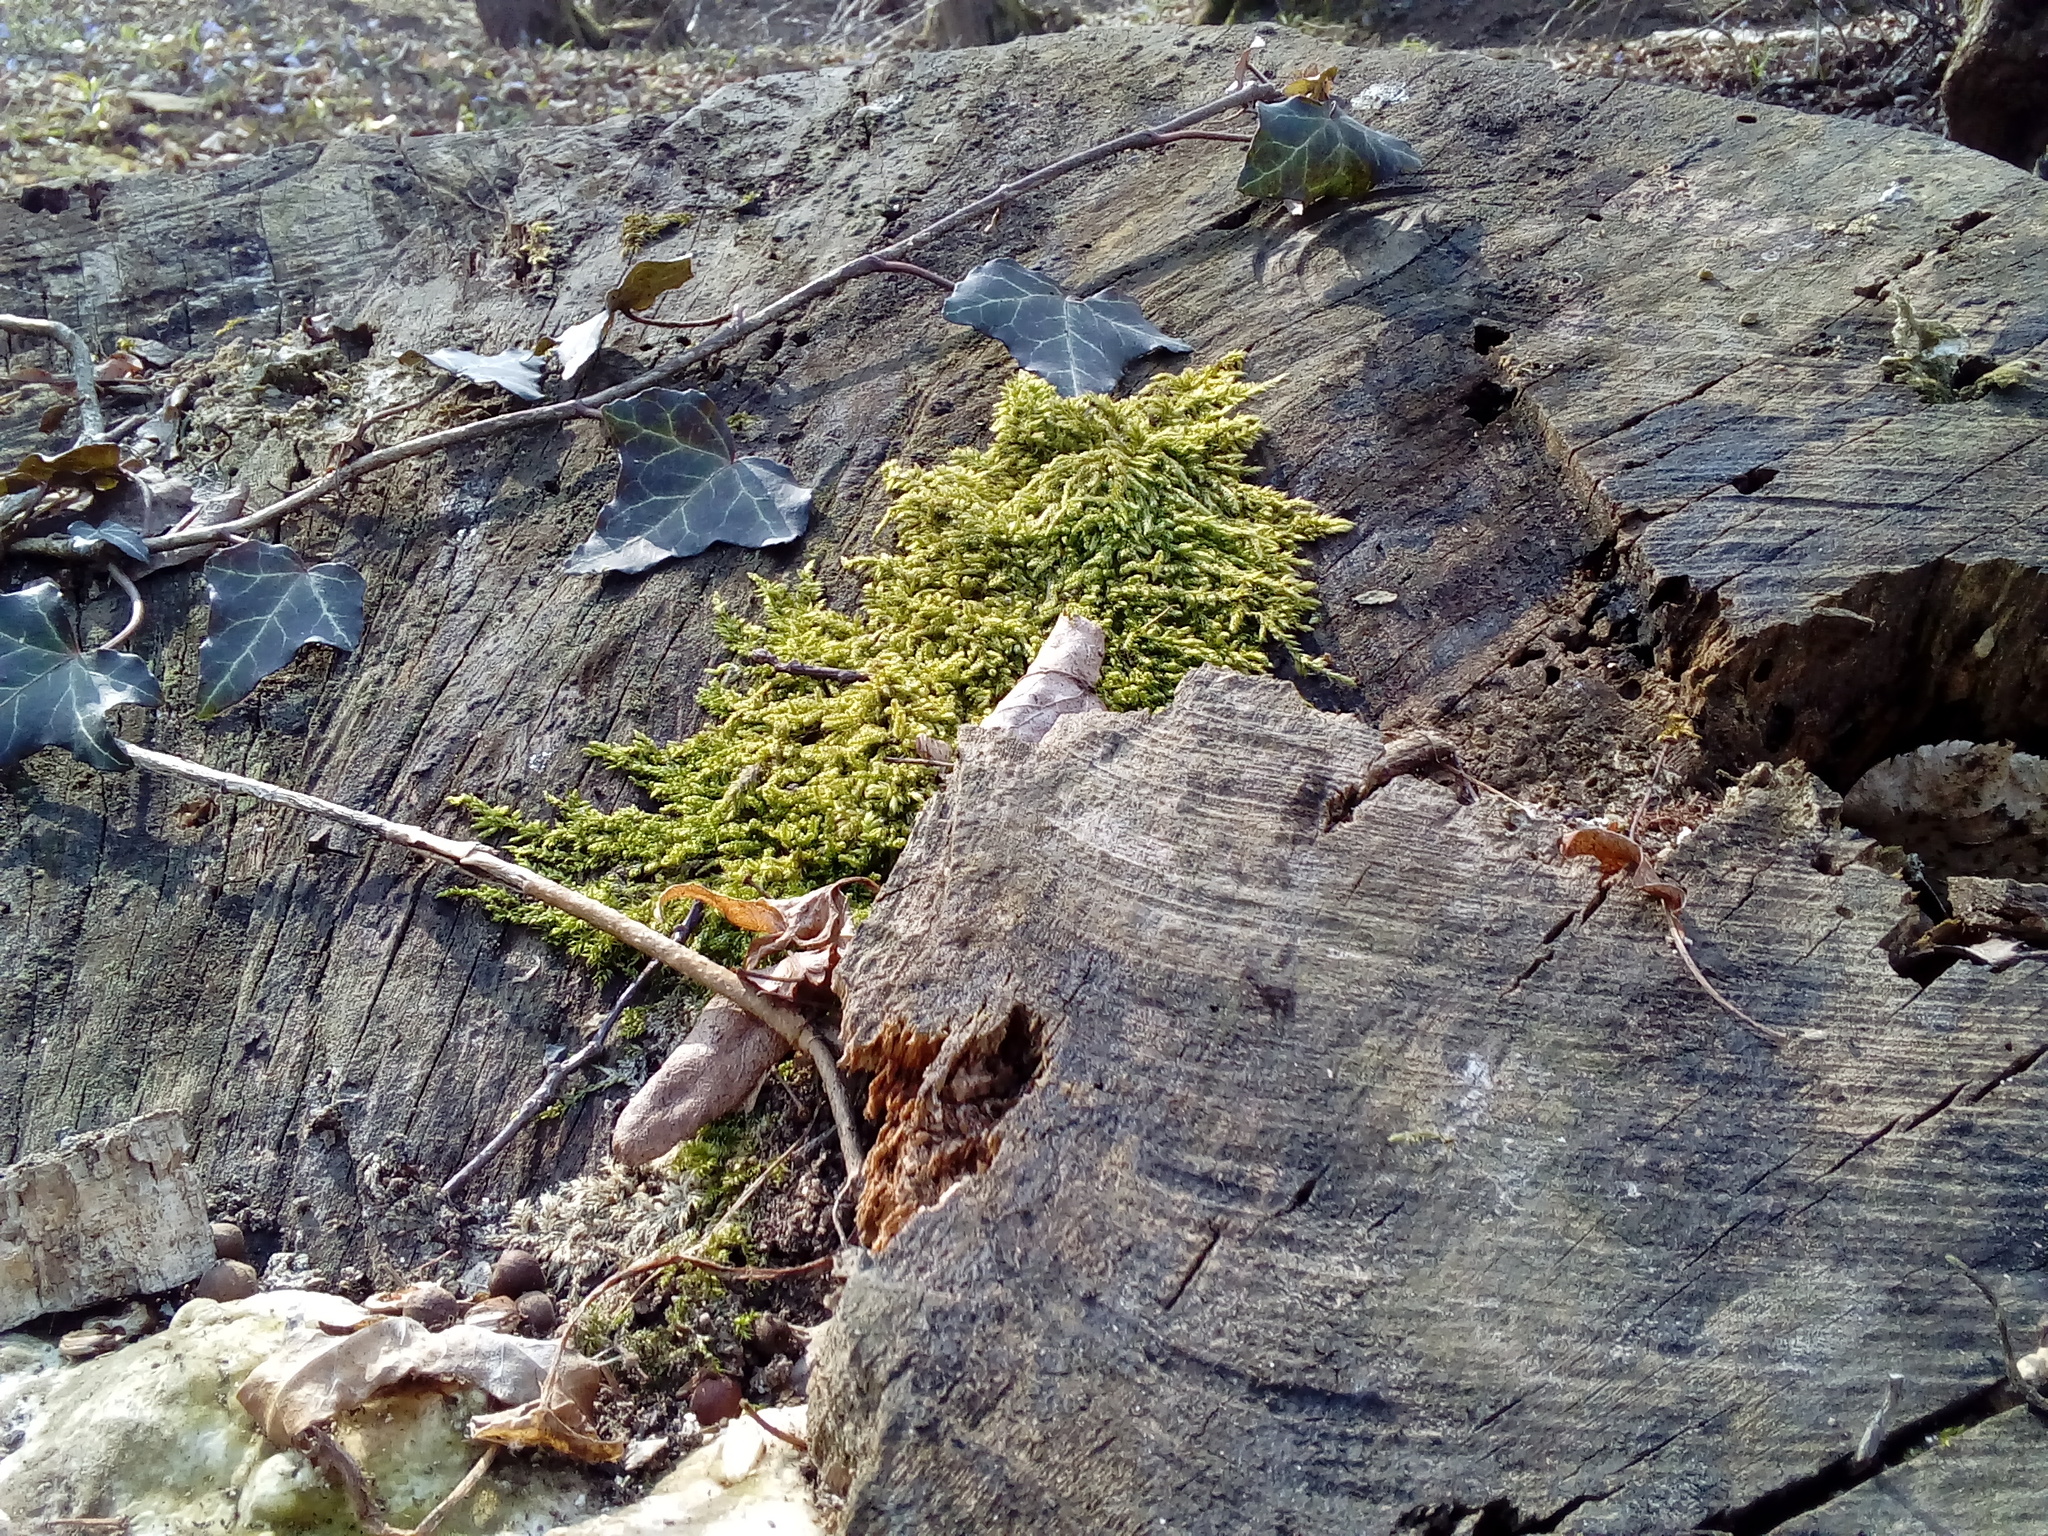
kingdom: Plantae
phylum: Tracheophyta
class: Magnoliopsida
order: Apiales
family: Araliaceae
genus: Hedera
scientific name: Hedera helix
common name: Ivy
